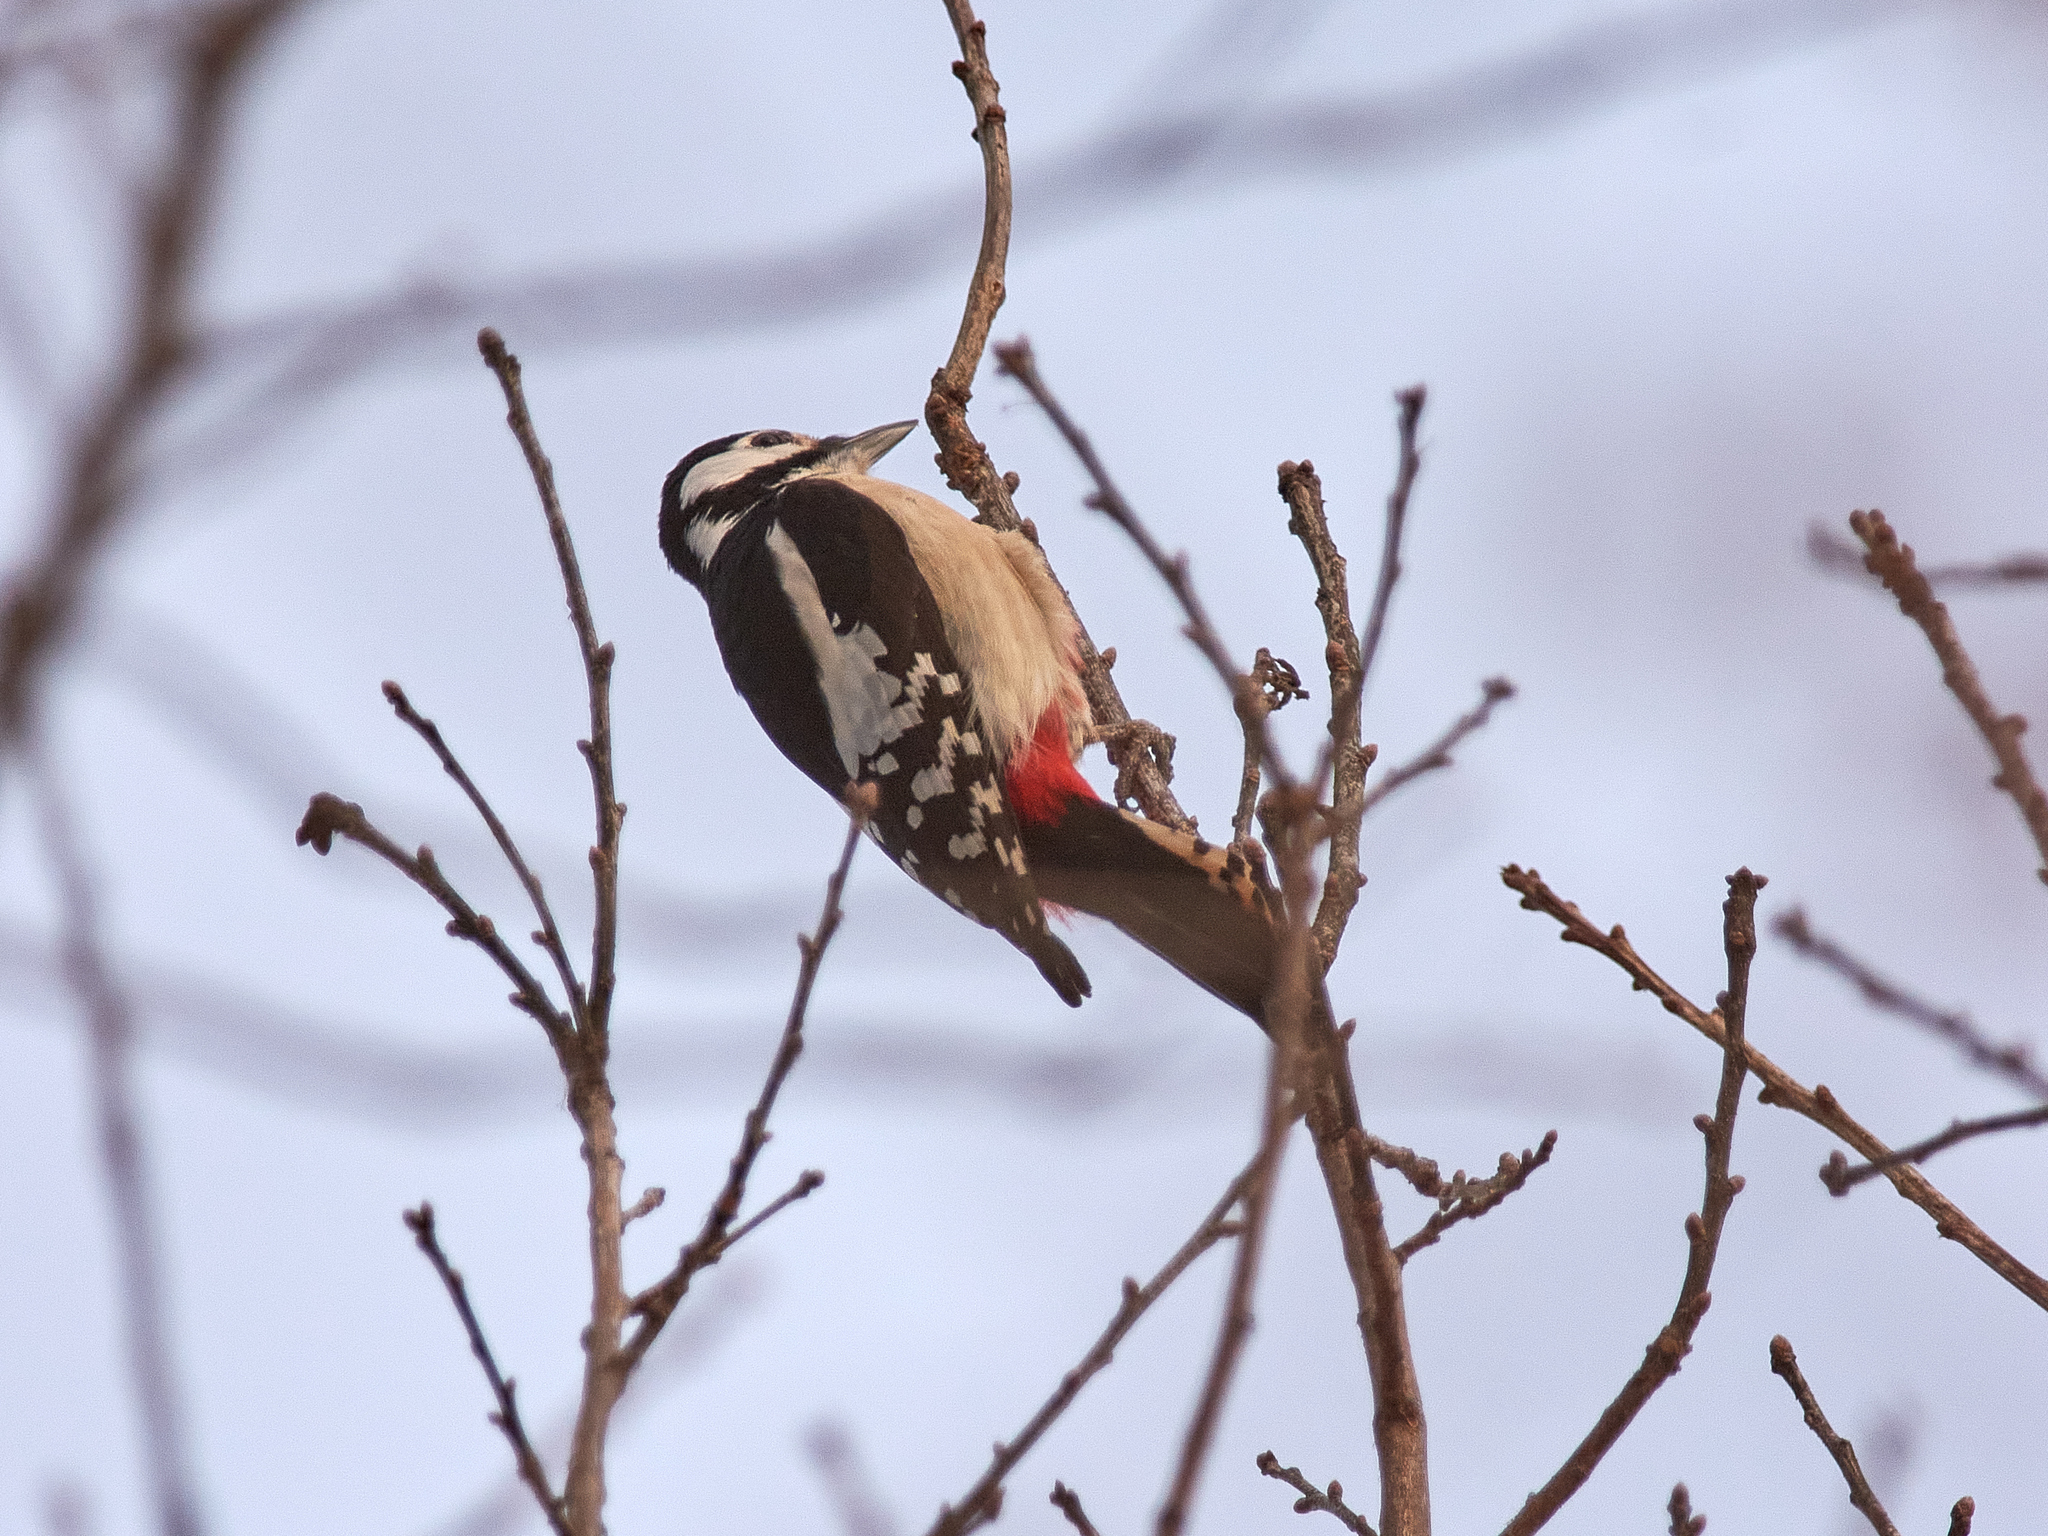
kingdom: Animalia
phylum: Chordata
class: Aves
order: Piciformes
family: Picidae
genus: Dendrocopos
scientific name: Dendrocopos major
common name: Great spotted woodpecker
